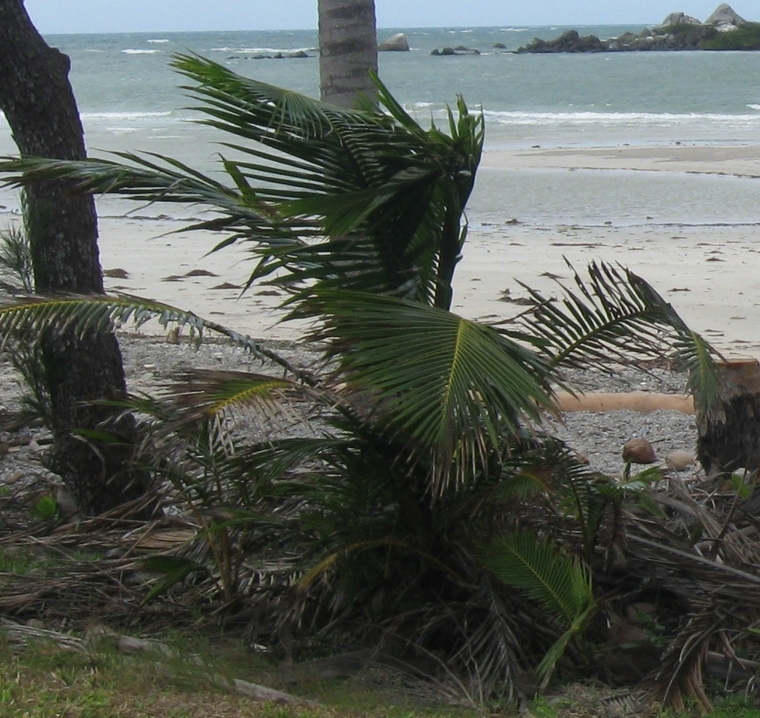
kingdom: Plantae
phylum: Tracheophyta
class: Liliopsida
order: Arecales
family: Arecaceae
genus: Cocos
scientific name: Cocos nucifera
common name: Coconut palm
